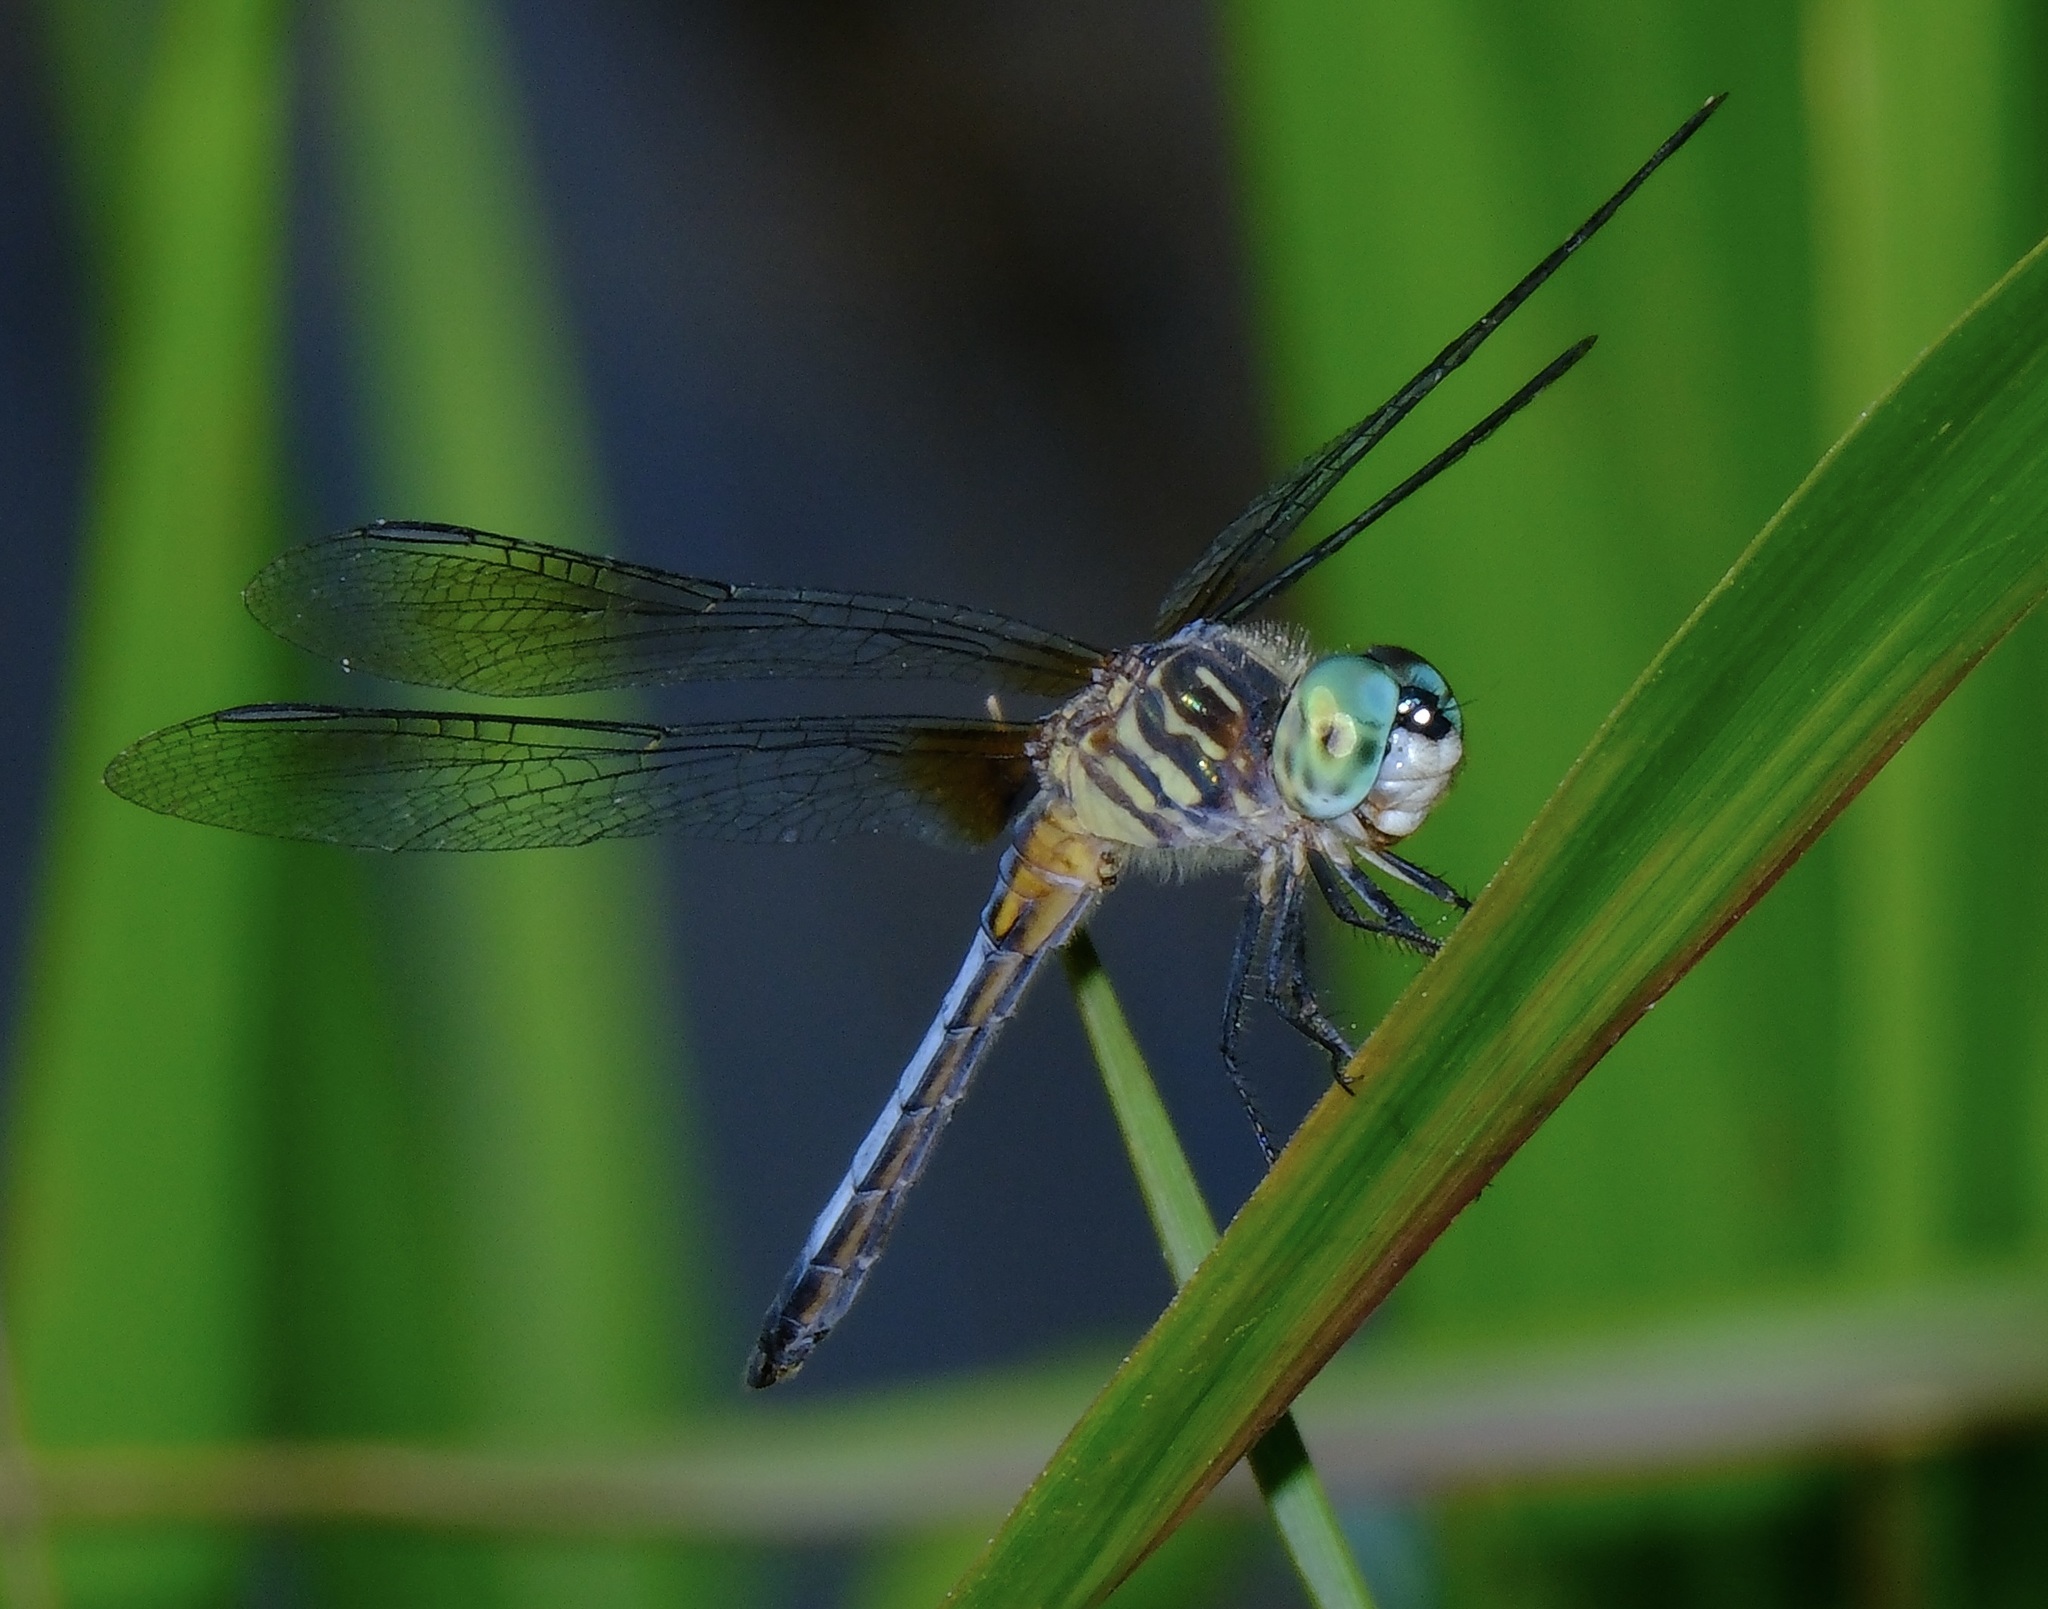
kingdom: Animalia
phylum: Arthropoda
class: Insecta
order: Odonata
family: Libellulidae
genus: Pachydiplax
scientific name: Pachydiplax longipennis
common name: Blue dasher
